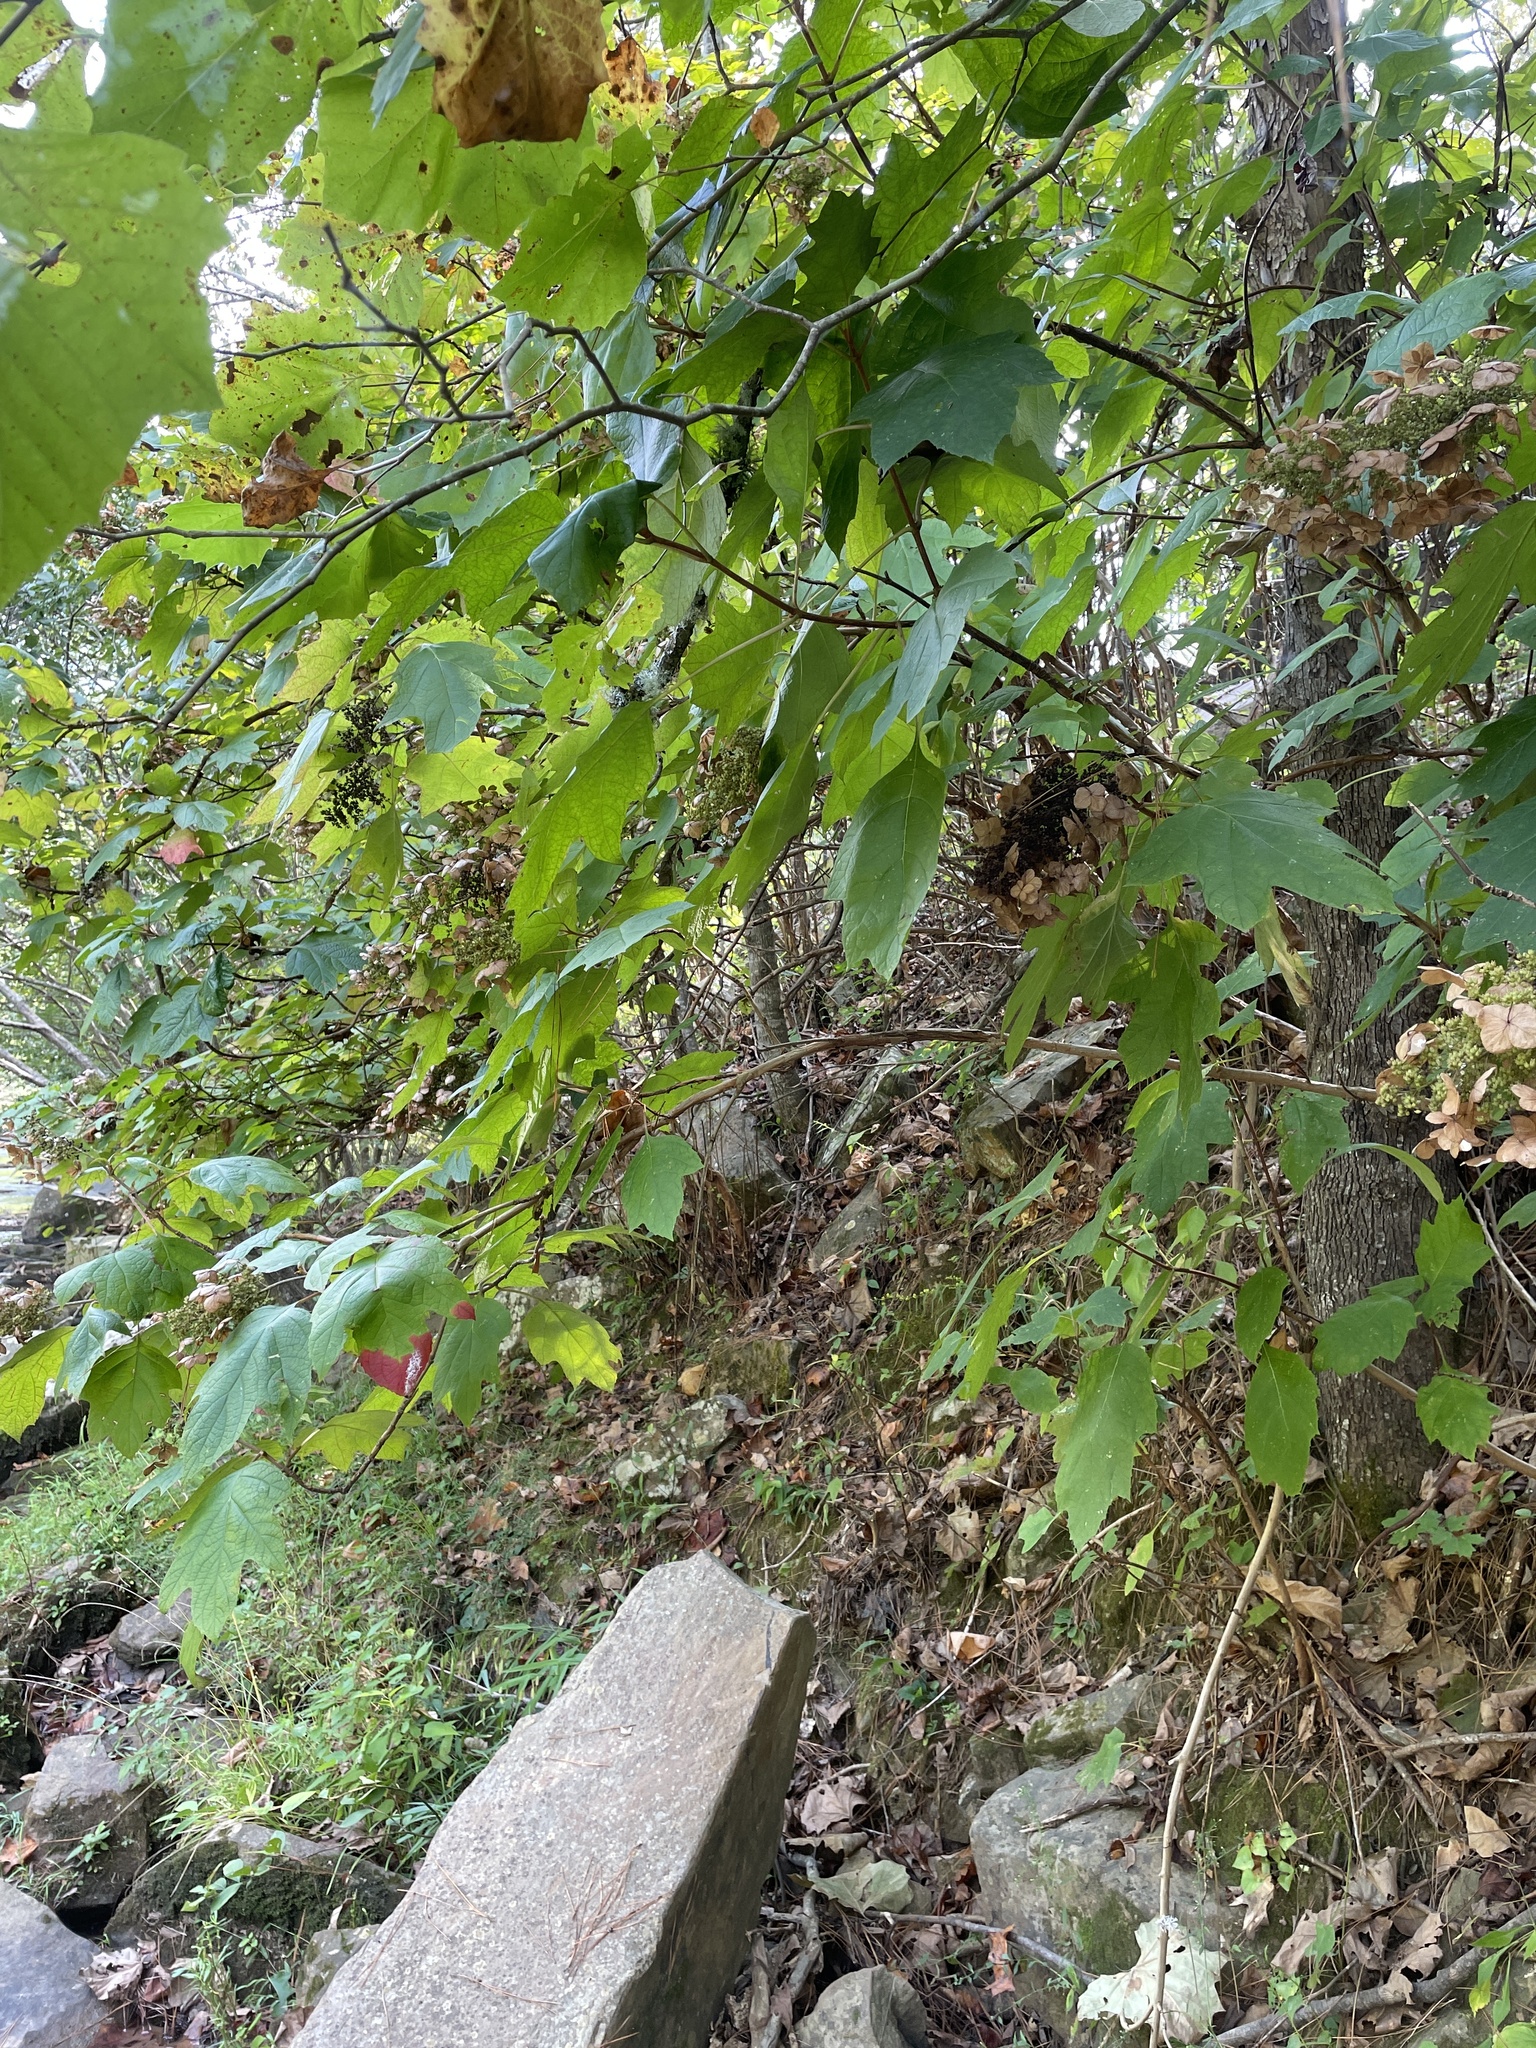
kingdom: Plantae
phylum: Tracheophyta
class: Magnoliopsida
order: Cornales
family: Hydrangeaceae
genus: Hydrangea
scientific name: Hydrangea quercifolia
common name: Oak-leaf hydrangea
